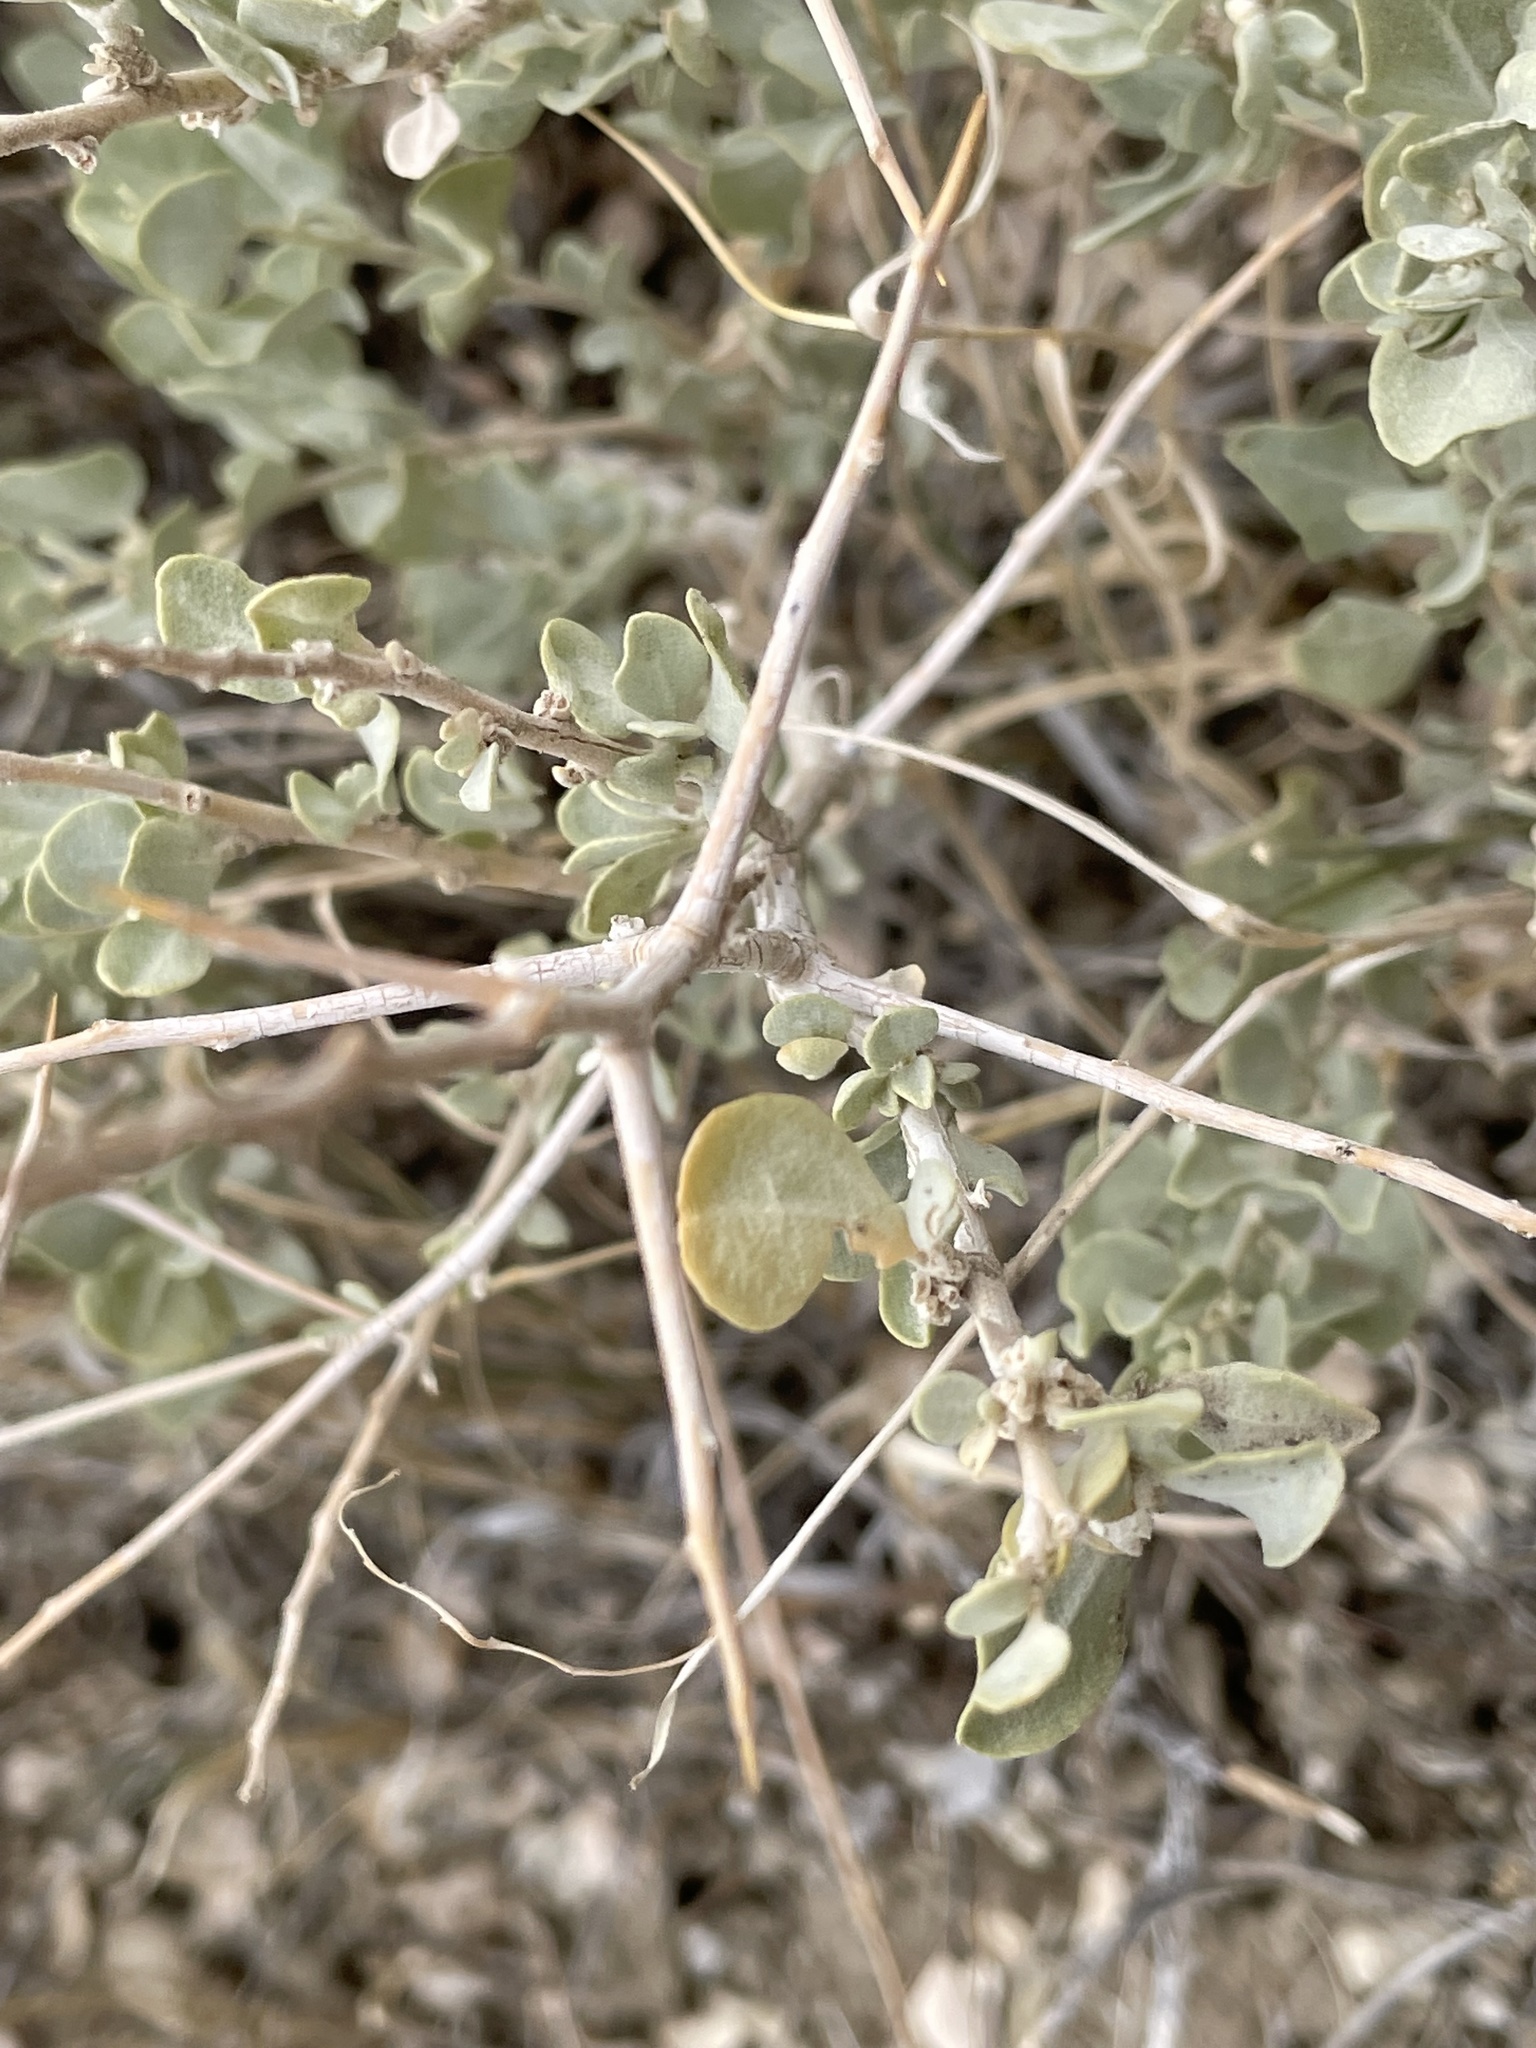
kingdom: Plantae
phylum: Tracheophyta
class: Magnoliopsida
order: Caryophyllales
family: Amaranthaceae
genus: Atriplex
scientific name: Atriplex confertifolia
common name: Shadscale
